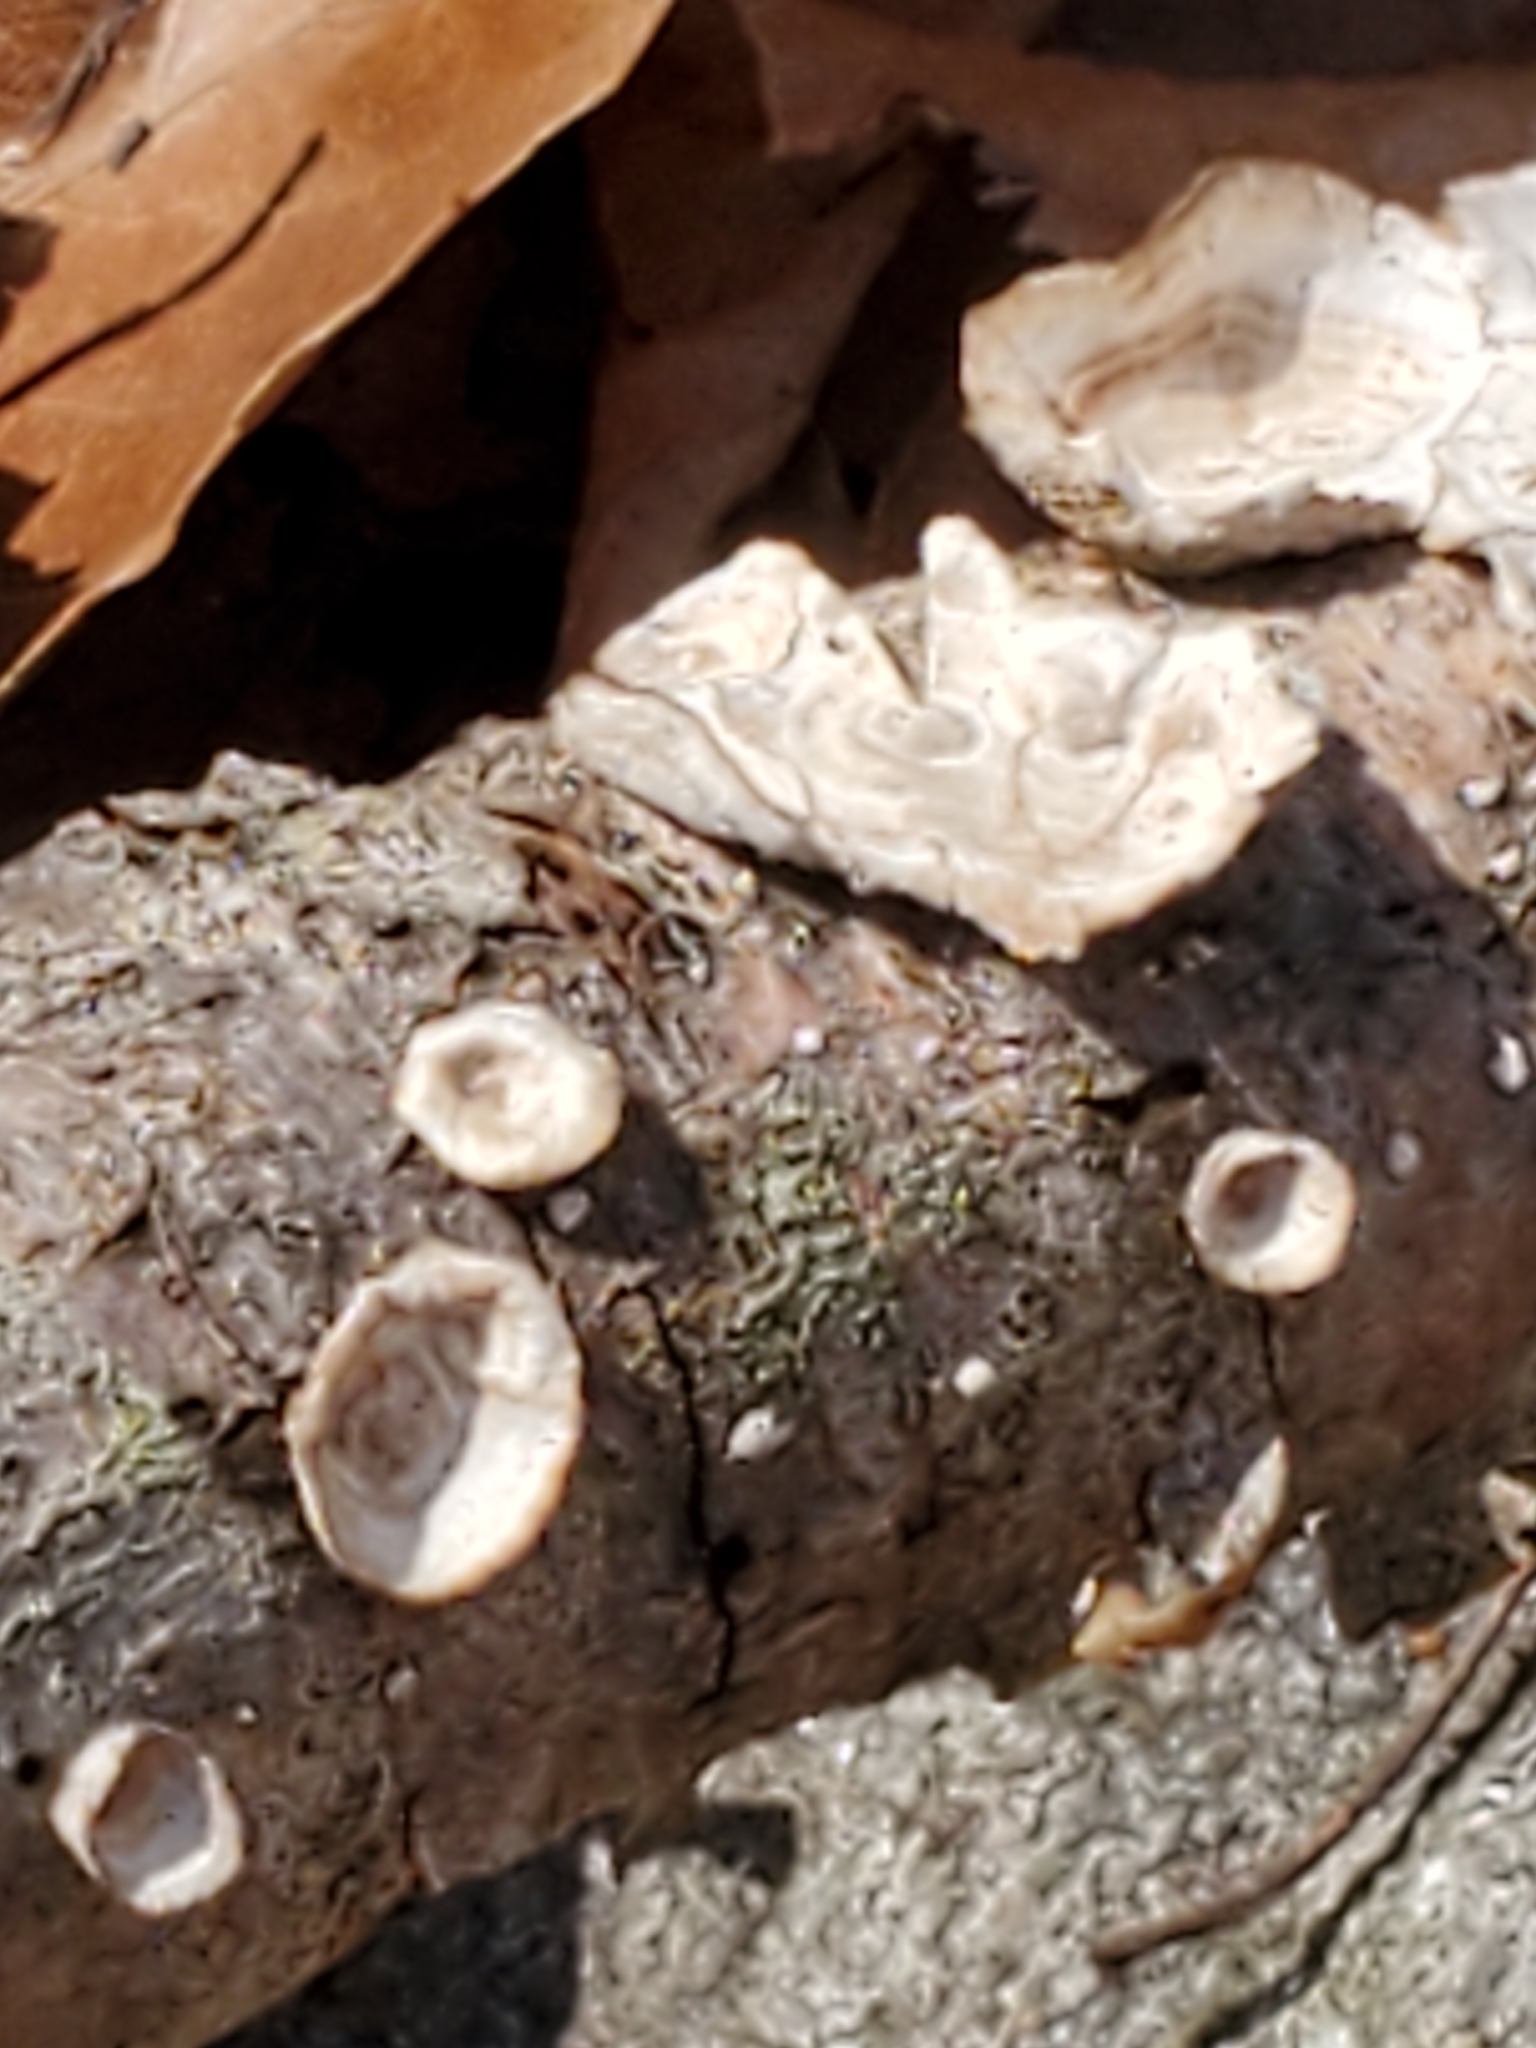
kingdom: Fungi
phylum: Basidiomycota
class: Agaricomycetes
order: Polyporales
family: Polyporaceae
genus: Poronidulus
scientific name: Poronidulus conchifer
